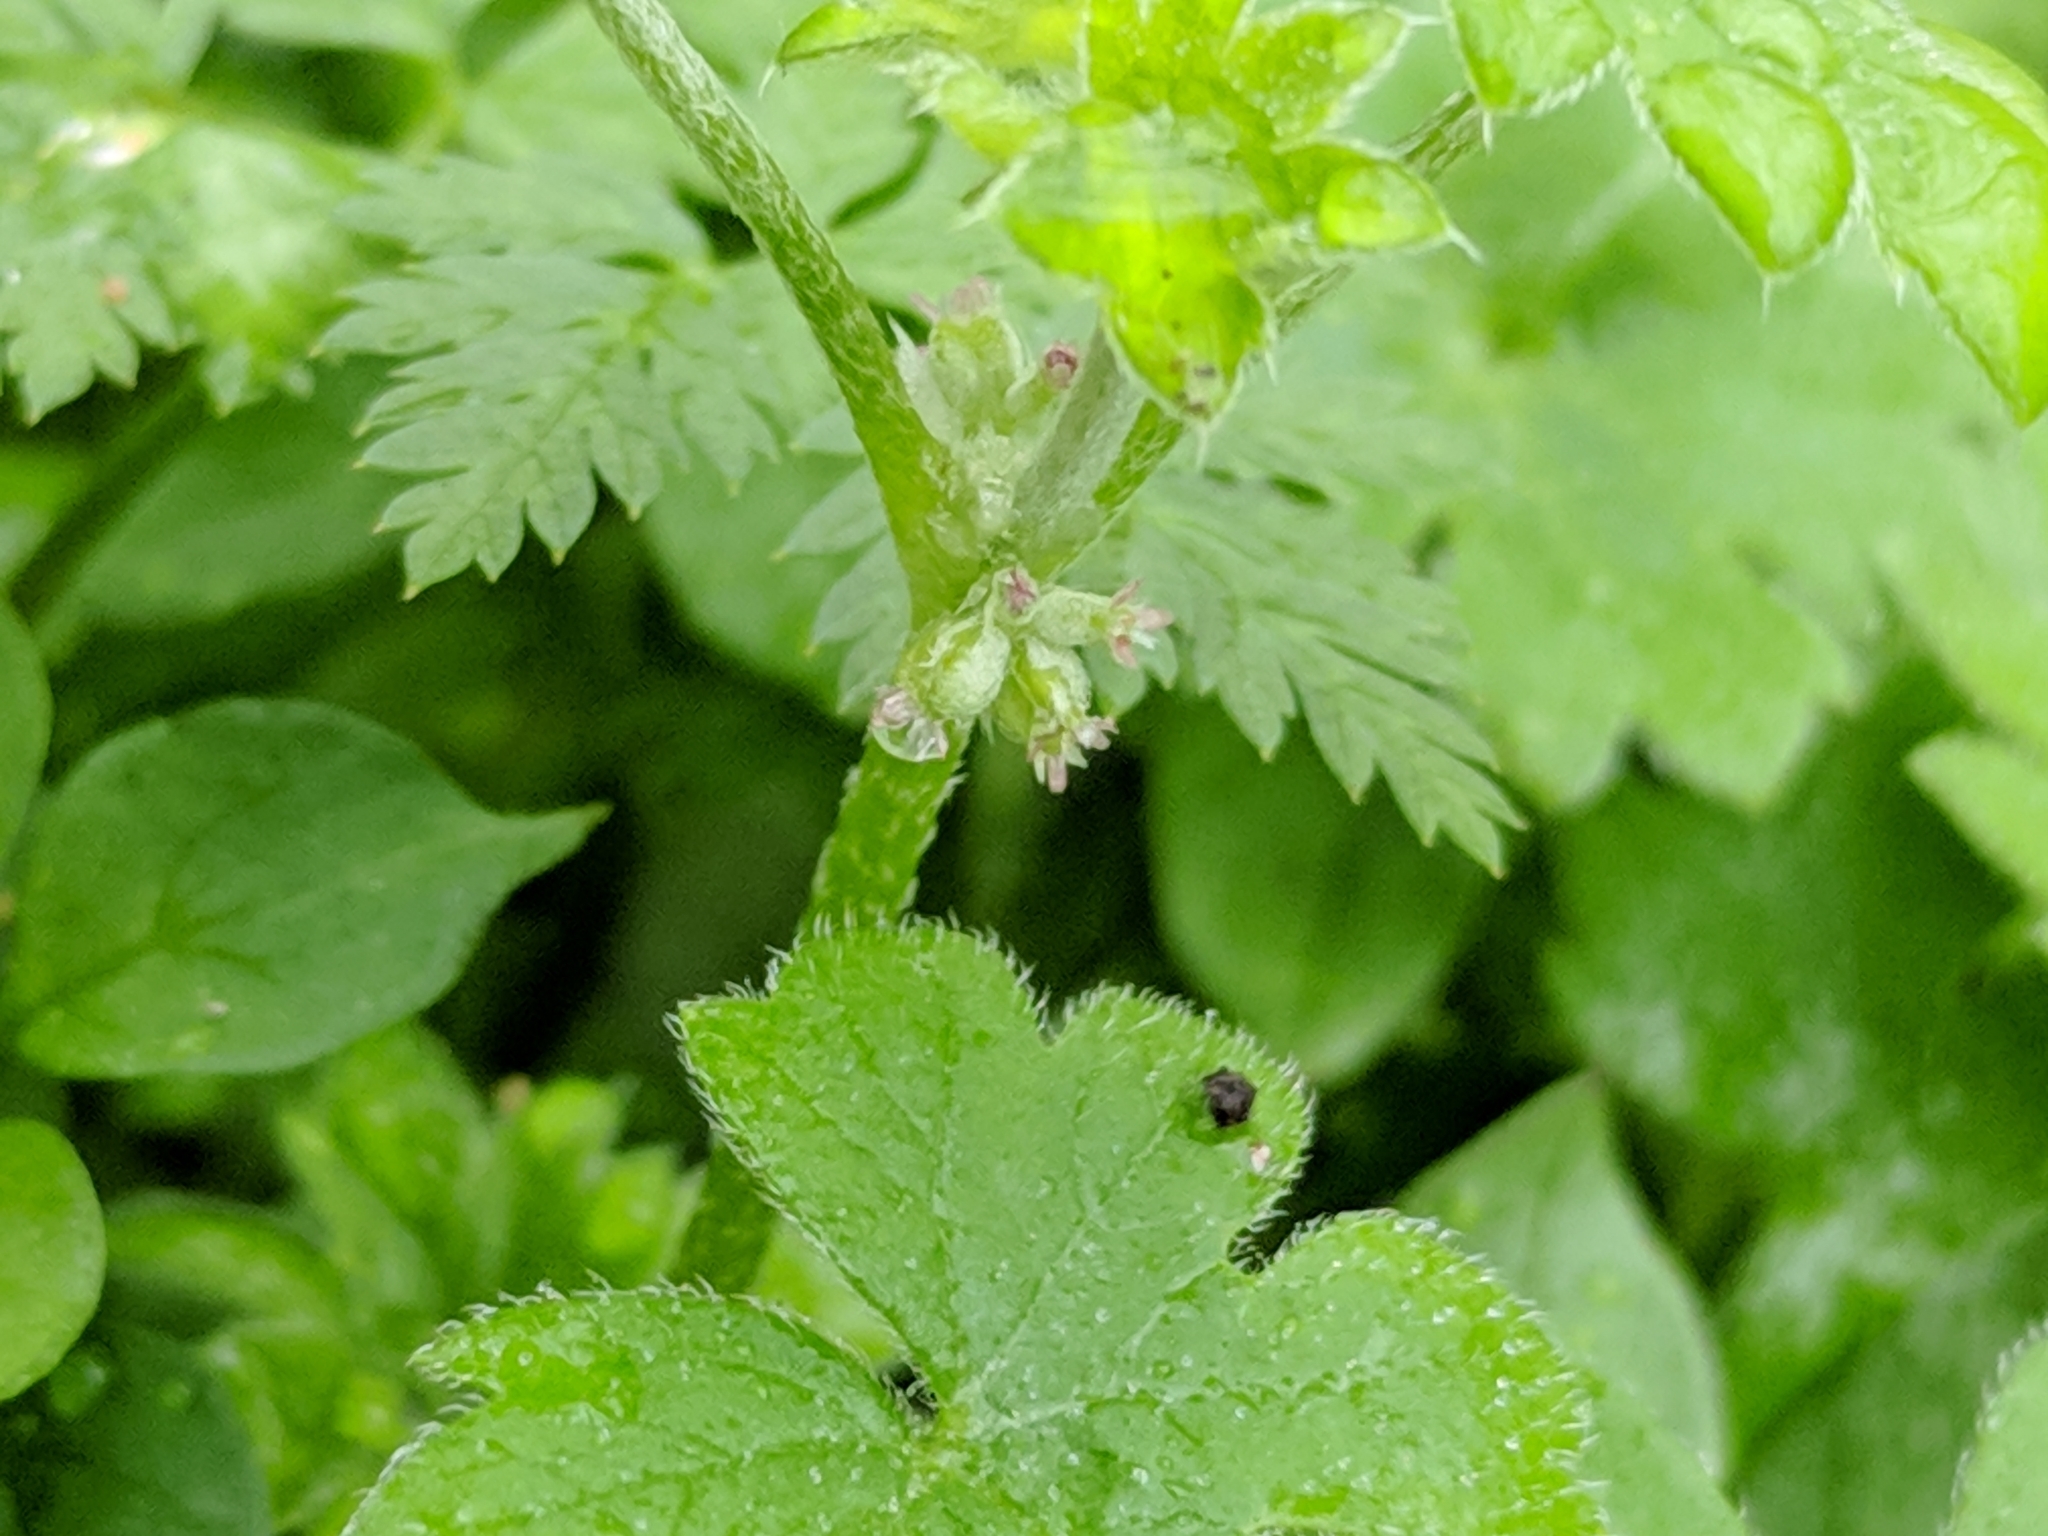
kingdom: Plantae
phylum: Tracheophyta
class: Magnoliopsida
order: Apiales
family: Apiaceae
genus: Bowlesia
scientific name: Bowlesia incana
